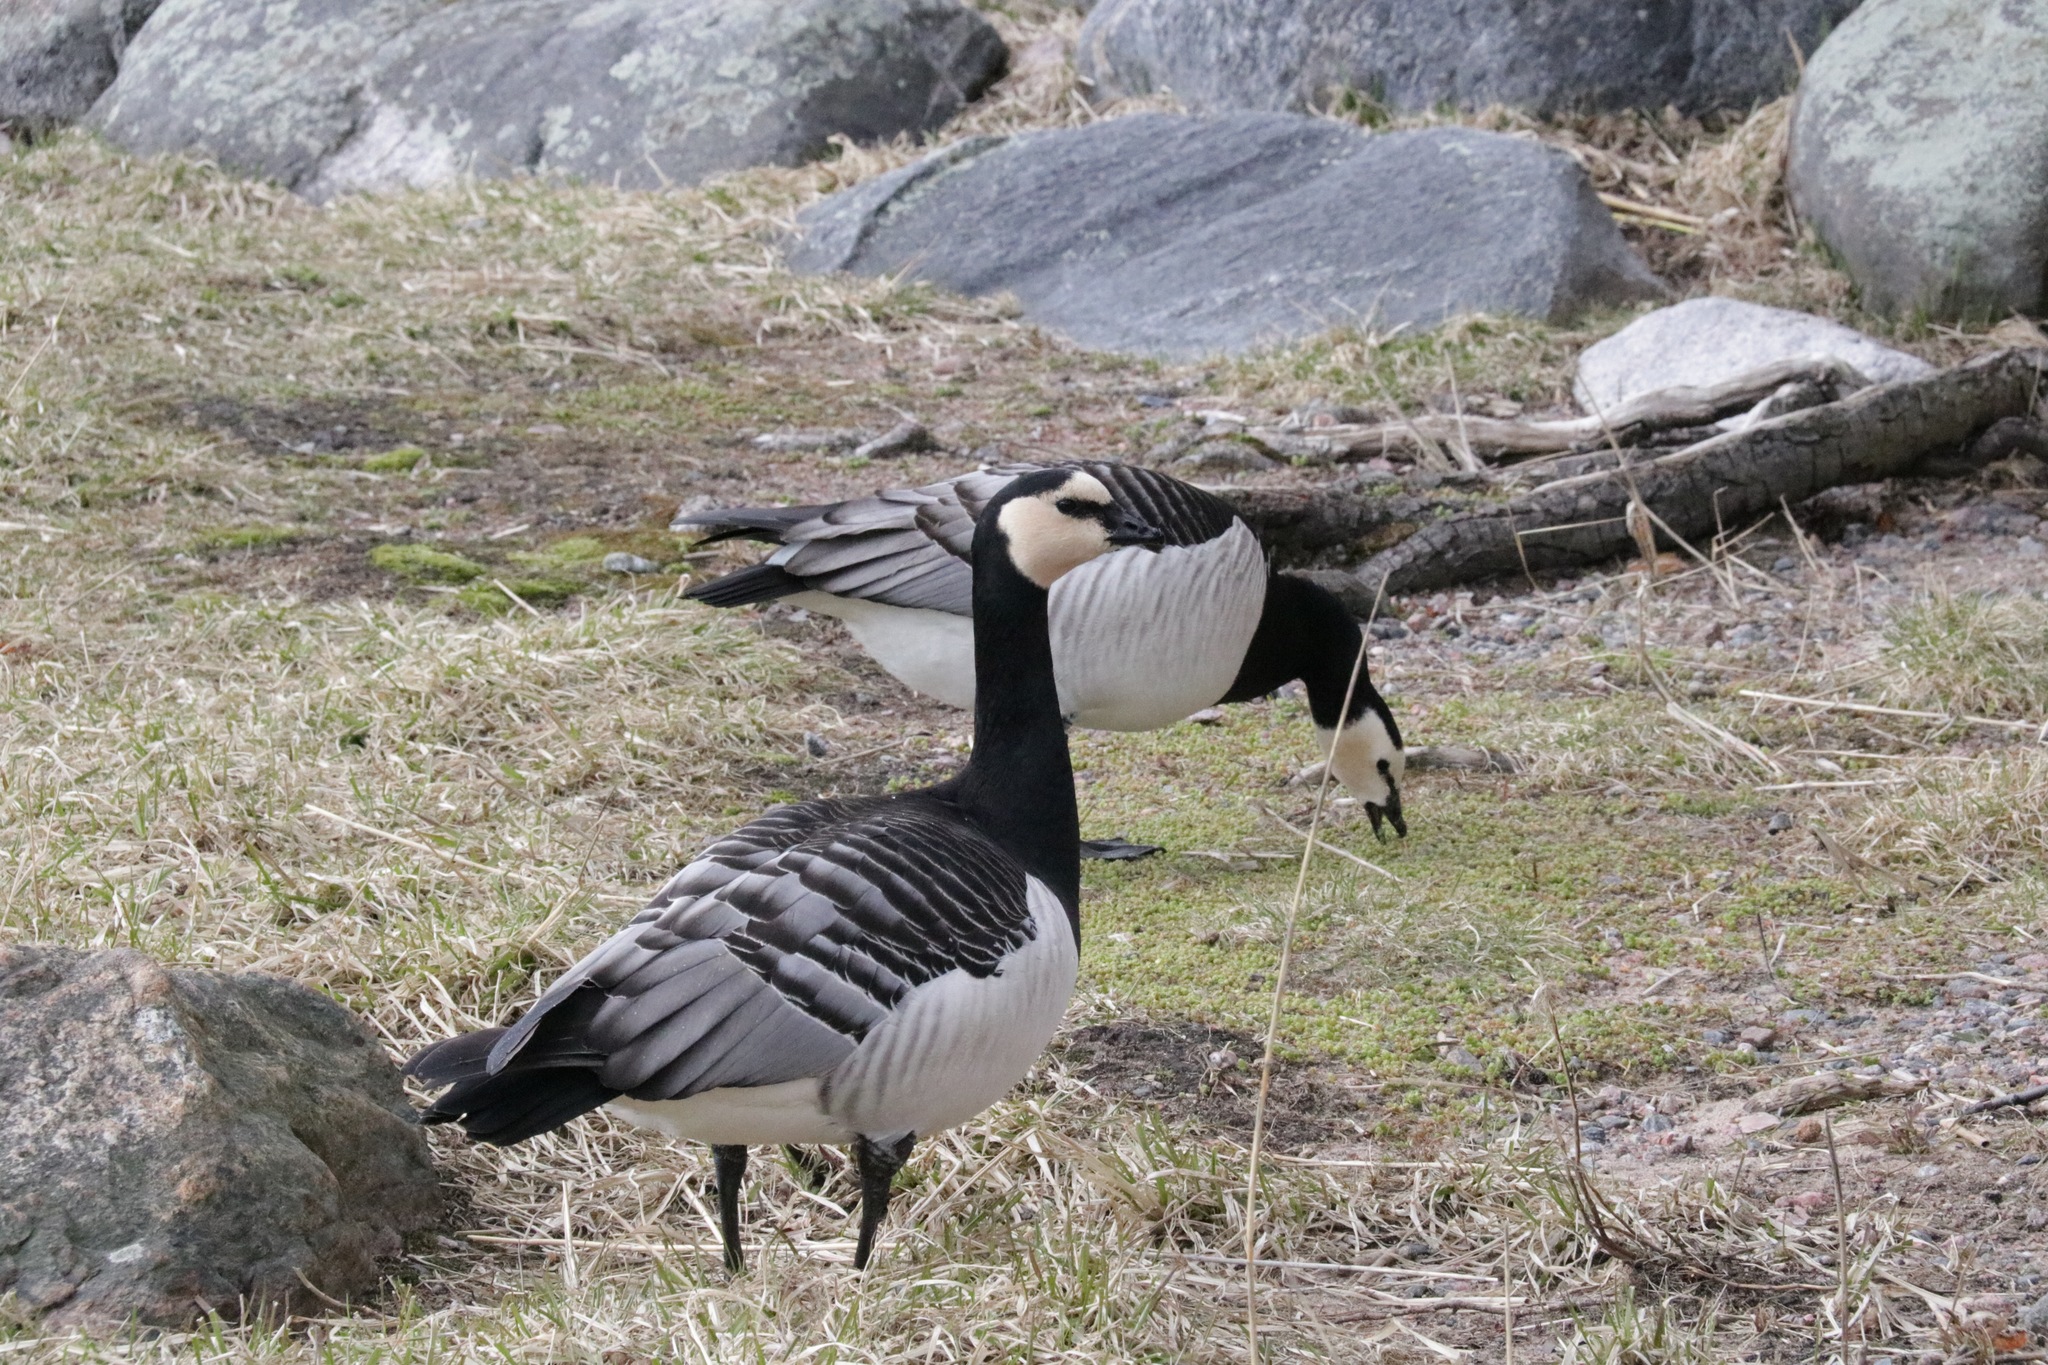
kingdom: Animalia
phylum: Chordata
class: Aves
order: Anseriformes
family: Anatidae
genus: Branta
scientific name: Branta leucopsis
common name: Barnacle goose
